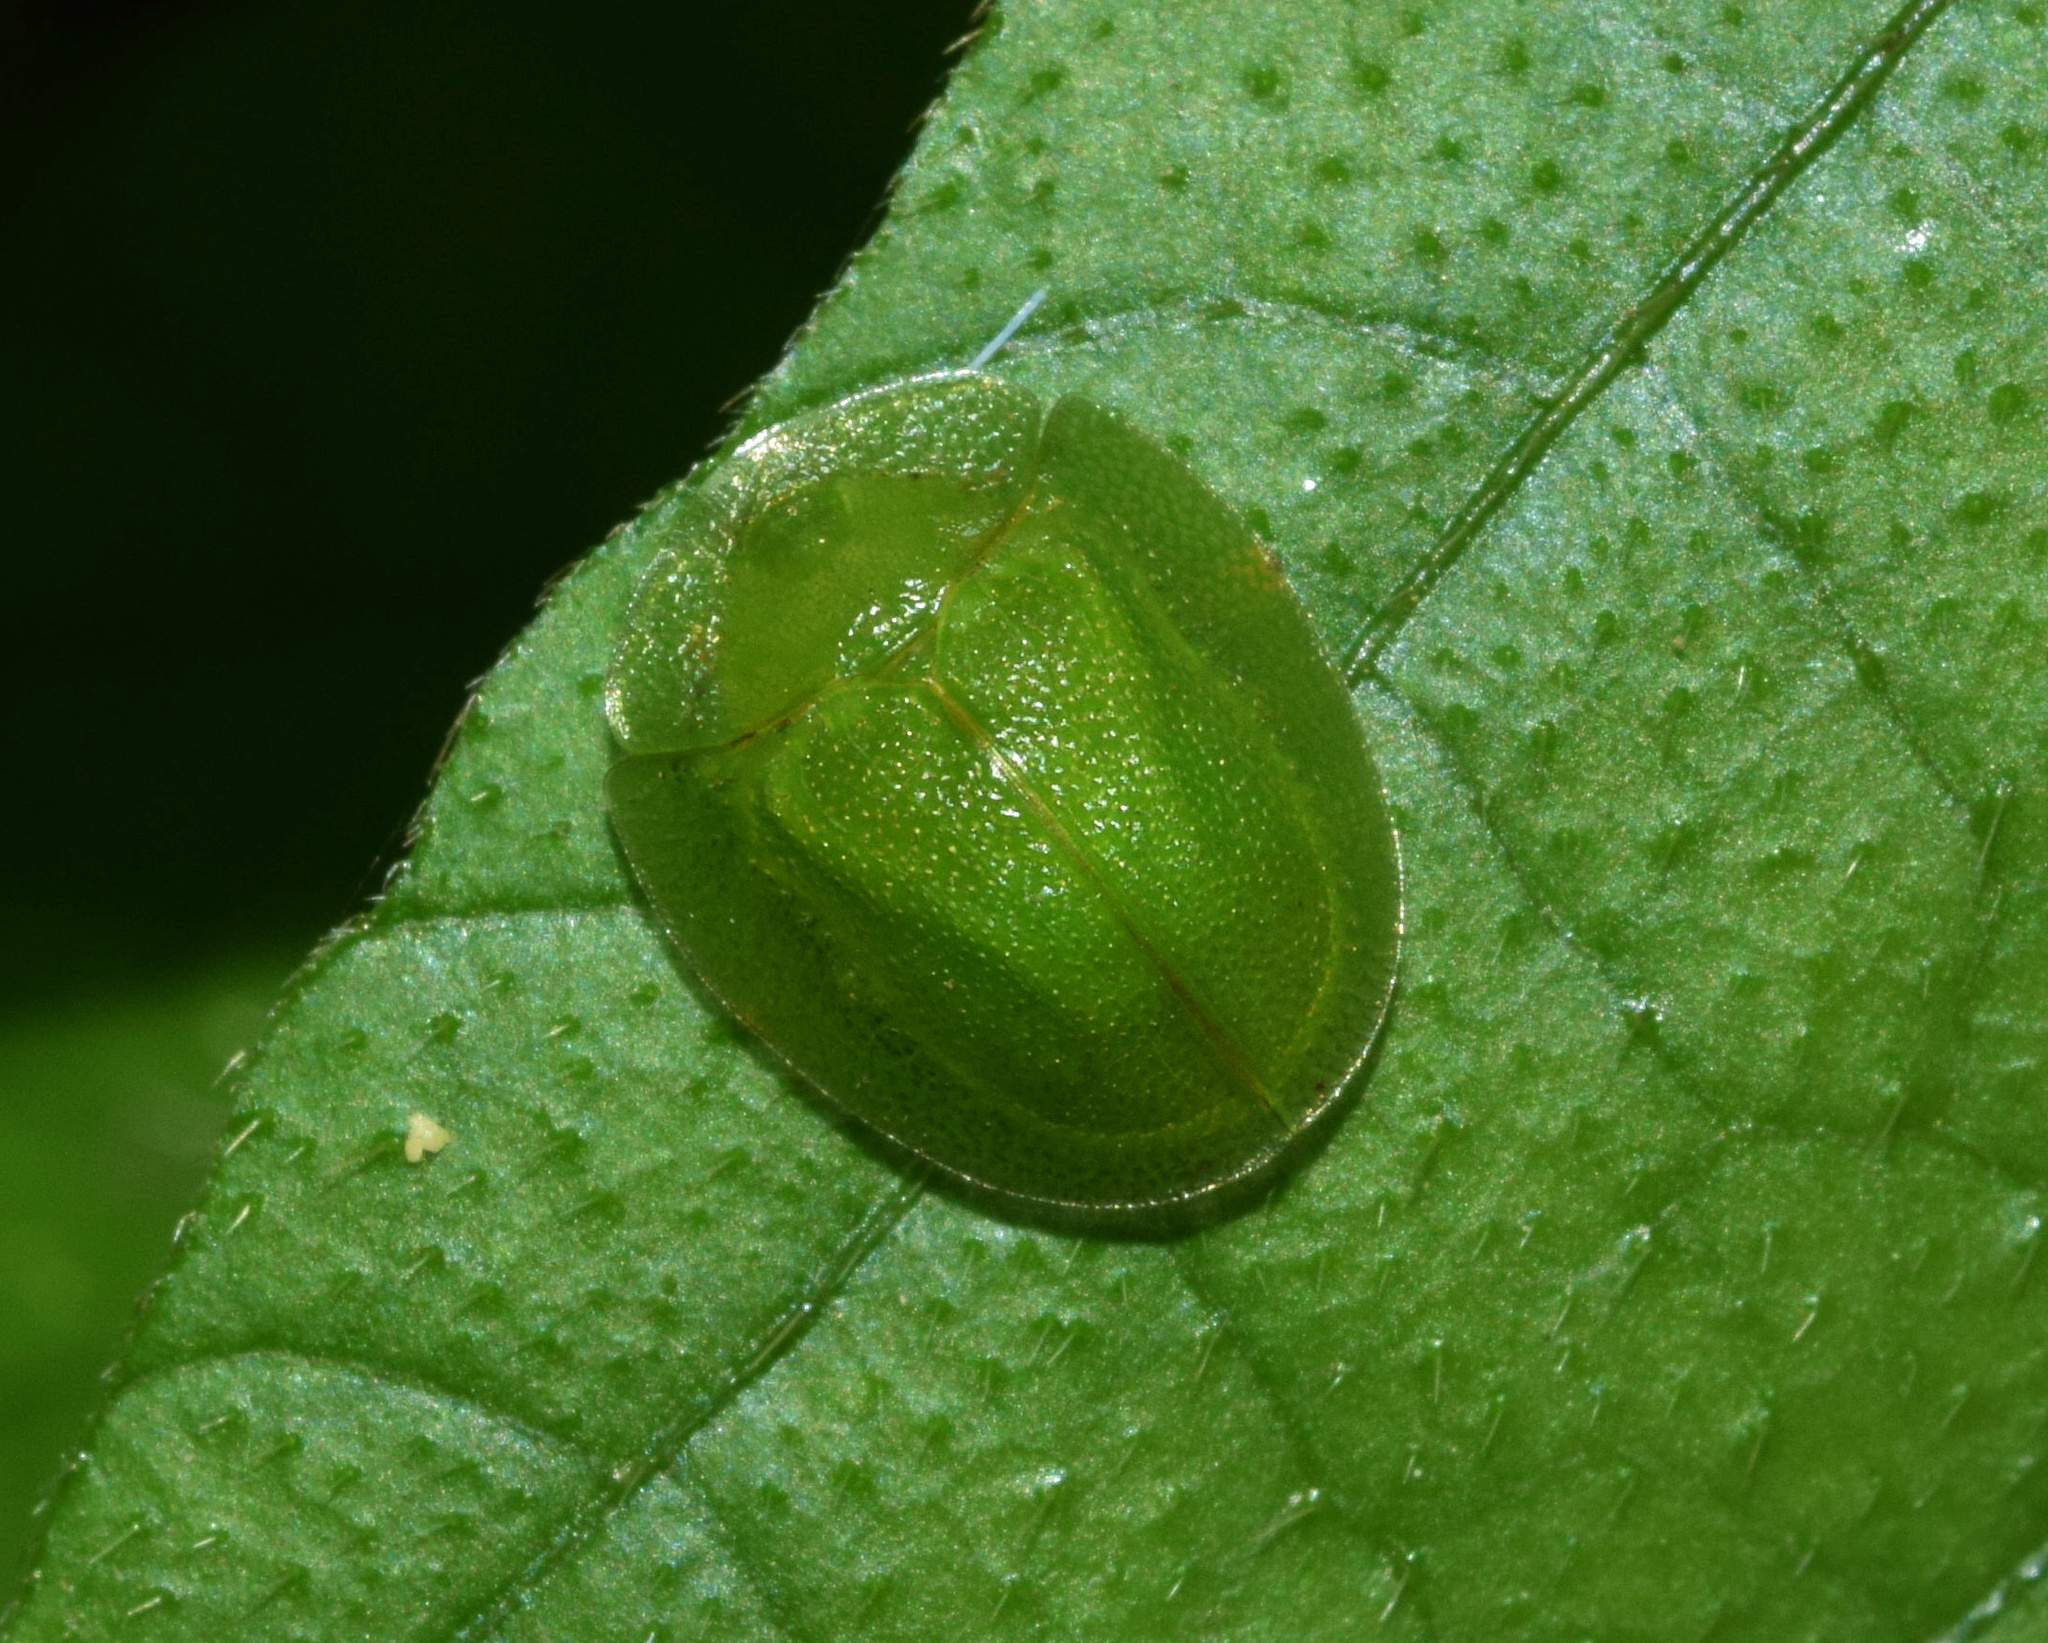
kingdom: Animalia
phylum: Arthropoda
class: Insecta
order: Coleoptera
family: Chrysomelidae
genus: Aspidimorpha
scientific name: Aspidimorpha siticulosa
